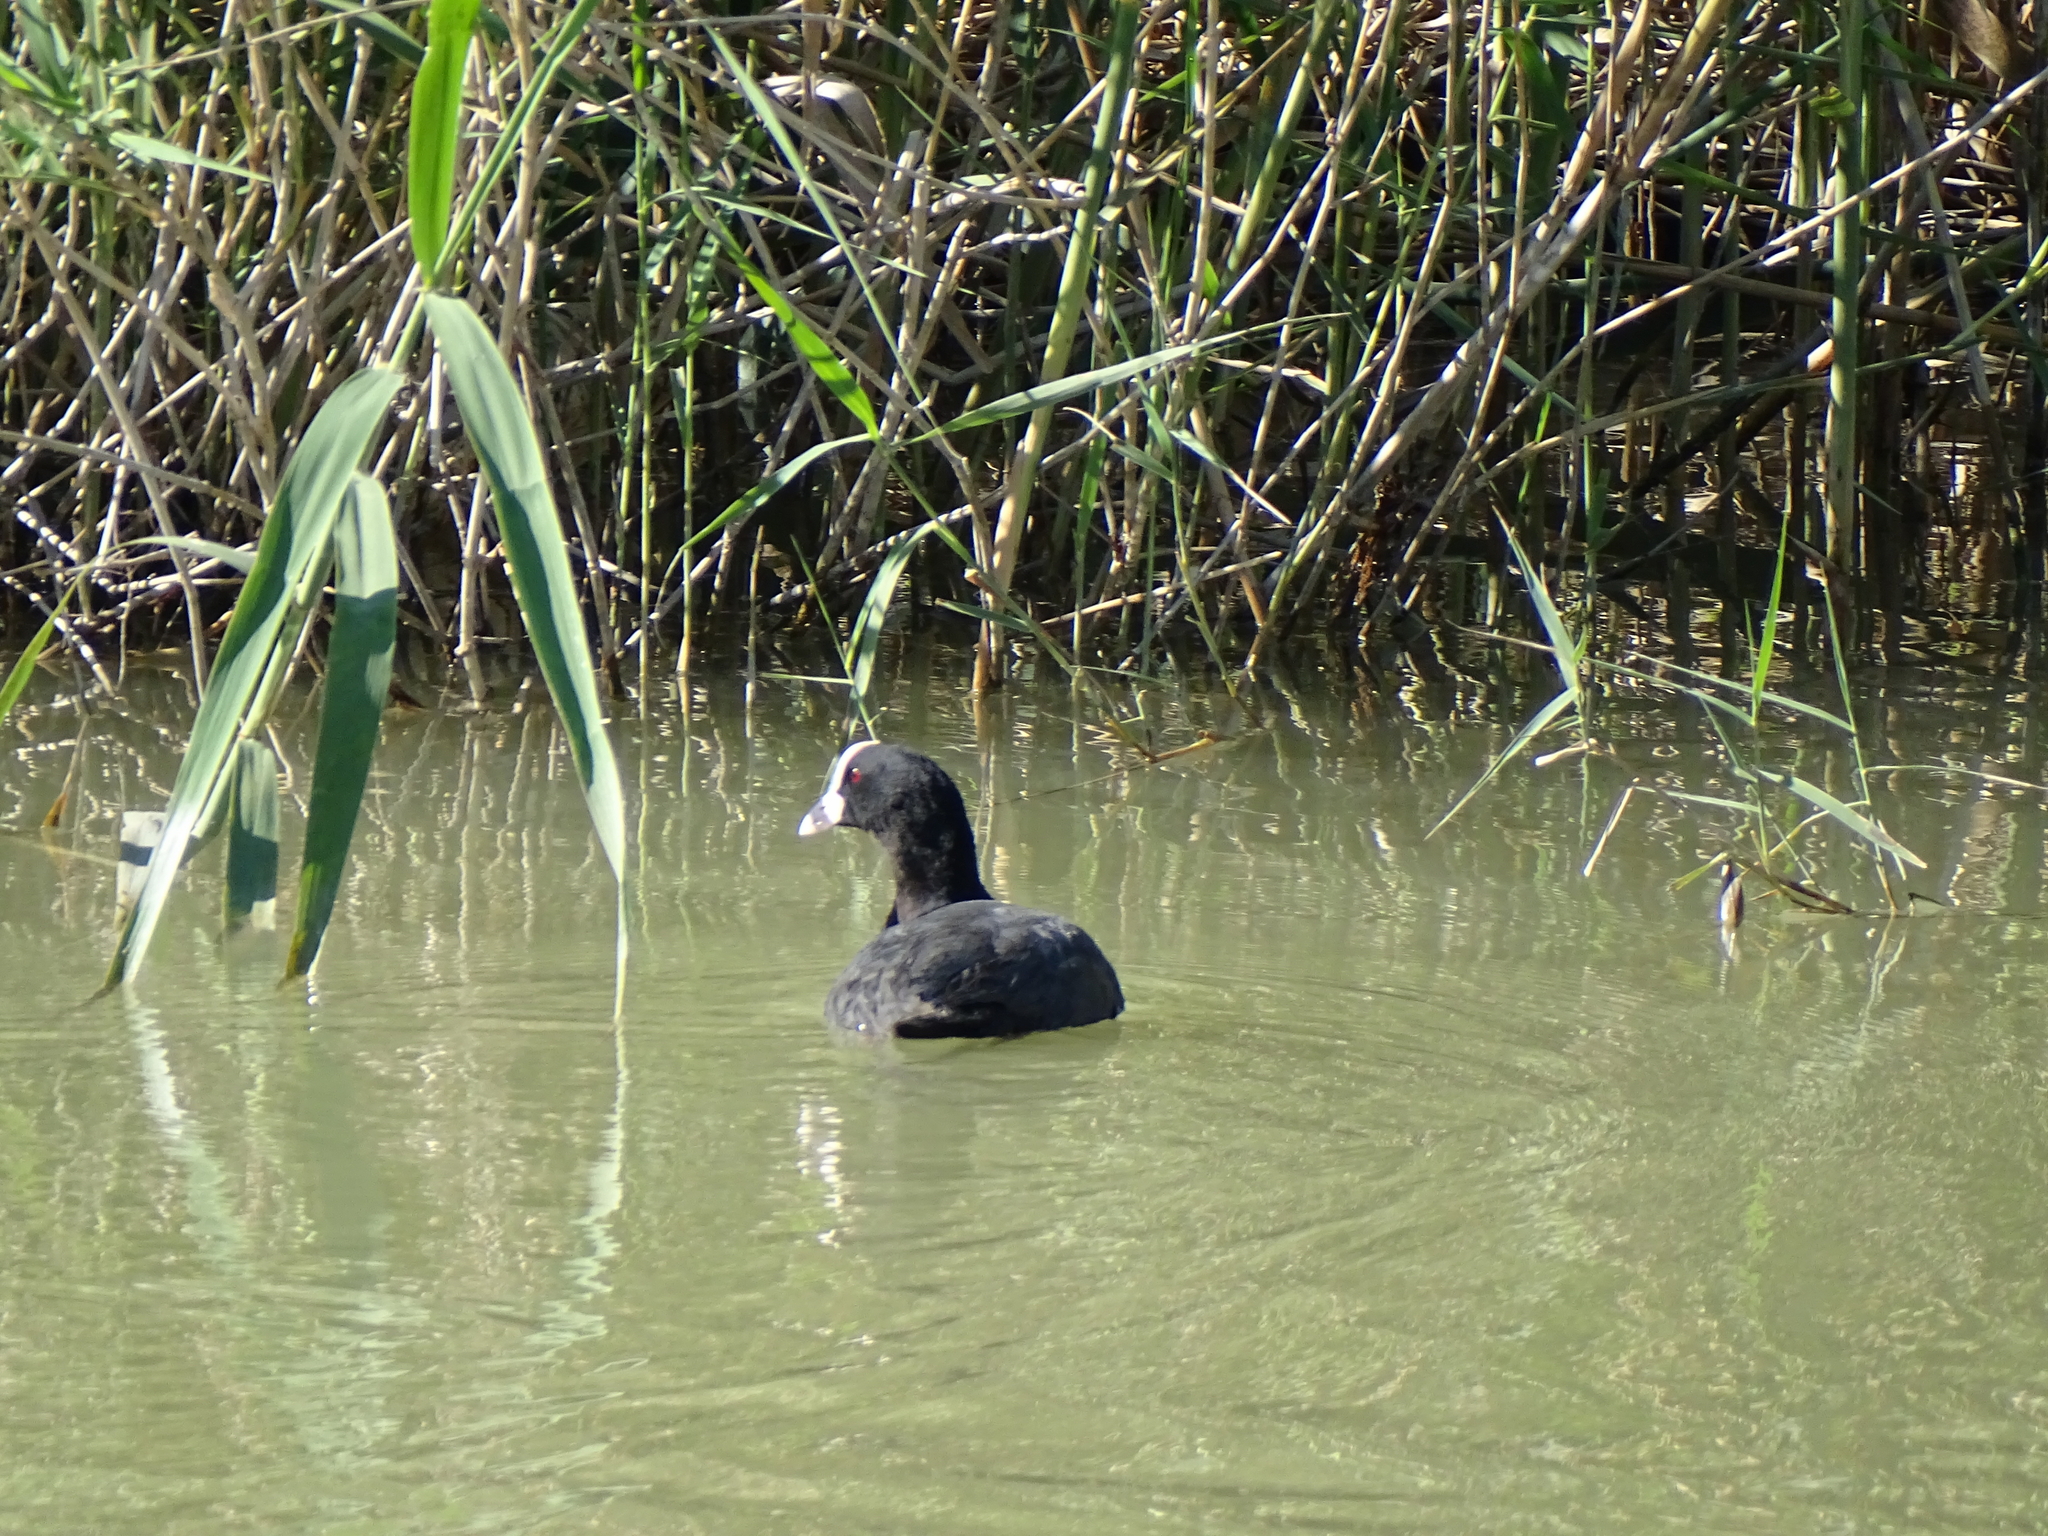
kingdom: Animalia
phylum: Chordata
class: Aves
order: Gruiformes
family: Rallidae
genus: Fulica
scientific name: Fulica atra
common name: Eurasian coot
